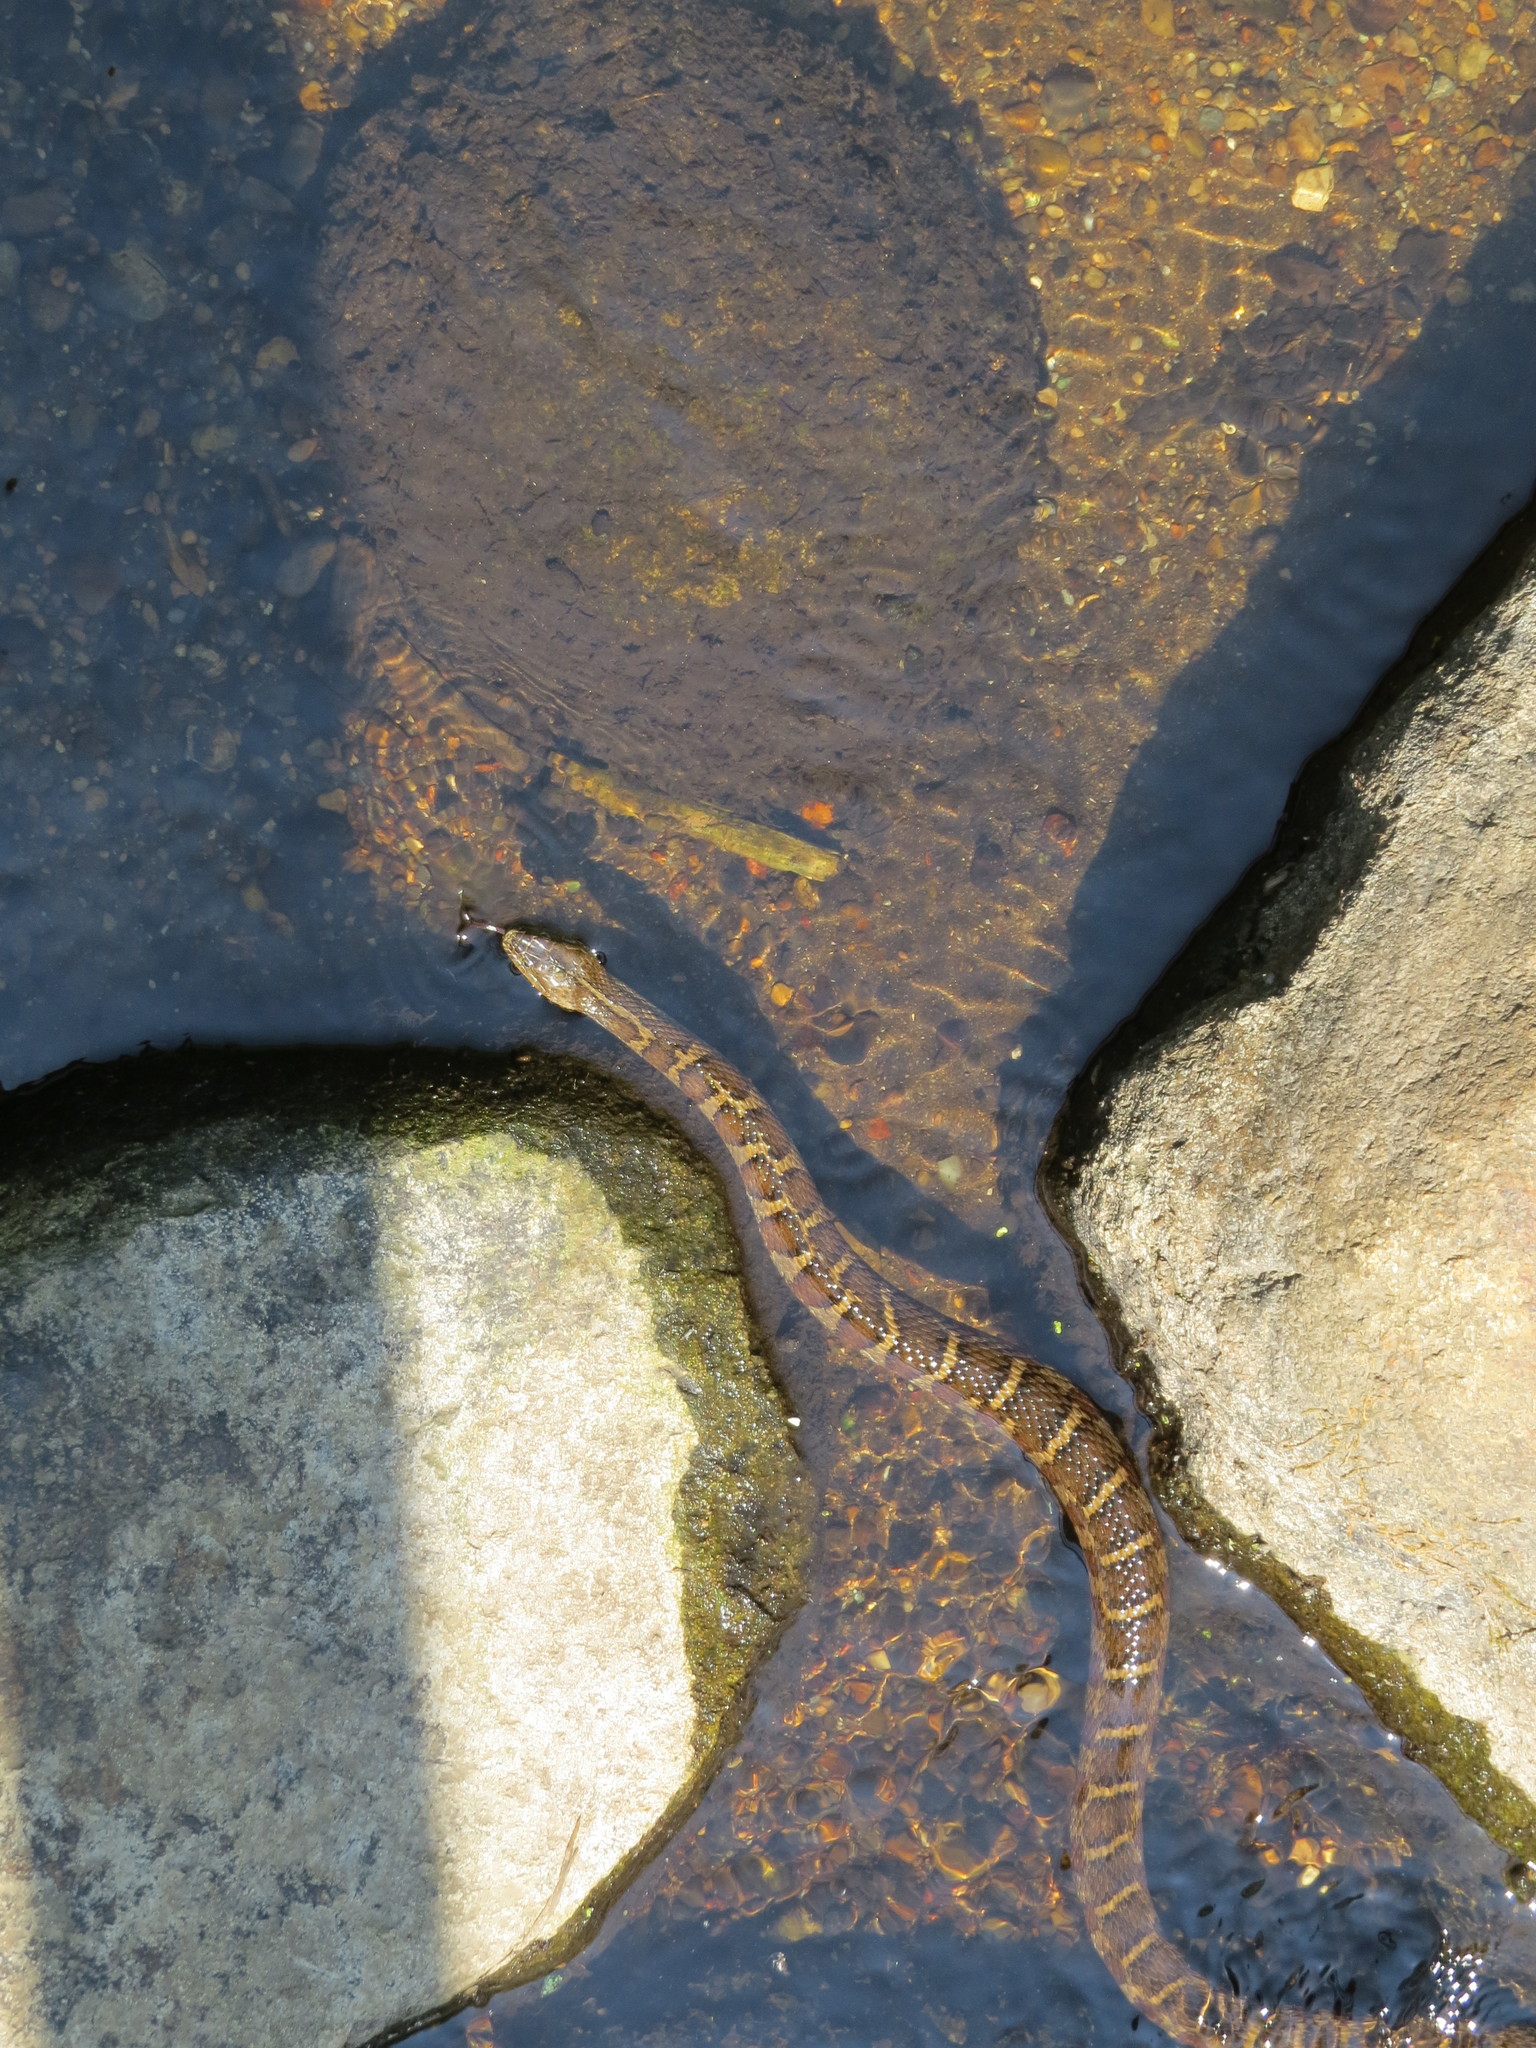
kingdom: Animalia
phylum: Chordata
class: Squamata
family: Colubridae
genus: Nerodia
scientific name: Nerodia sipedon
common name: Northern water snake
